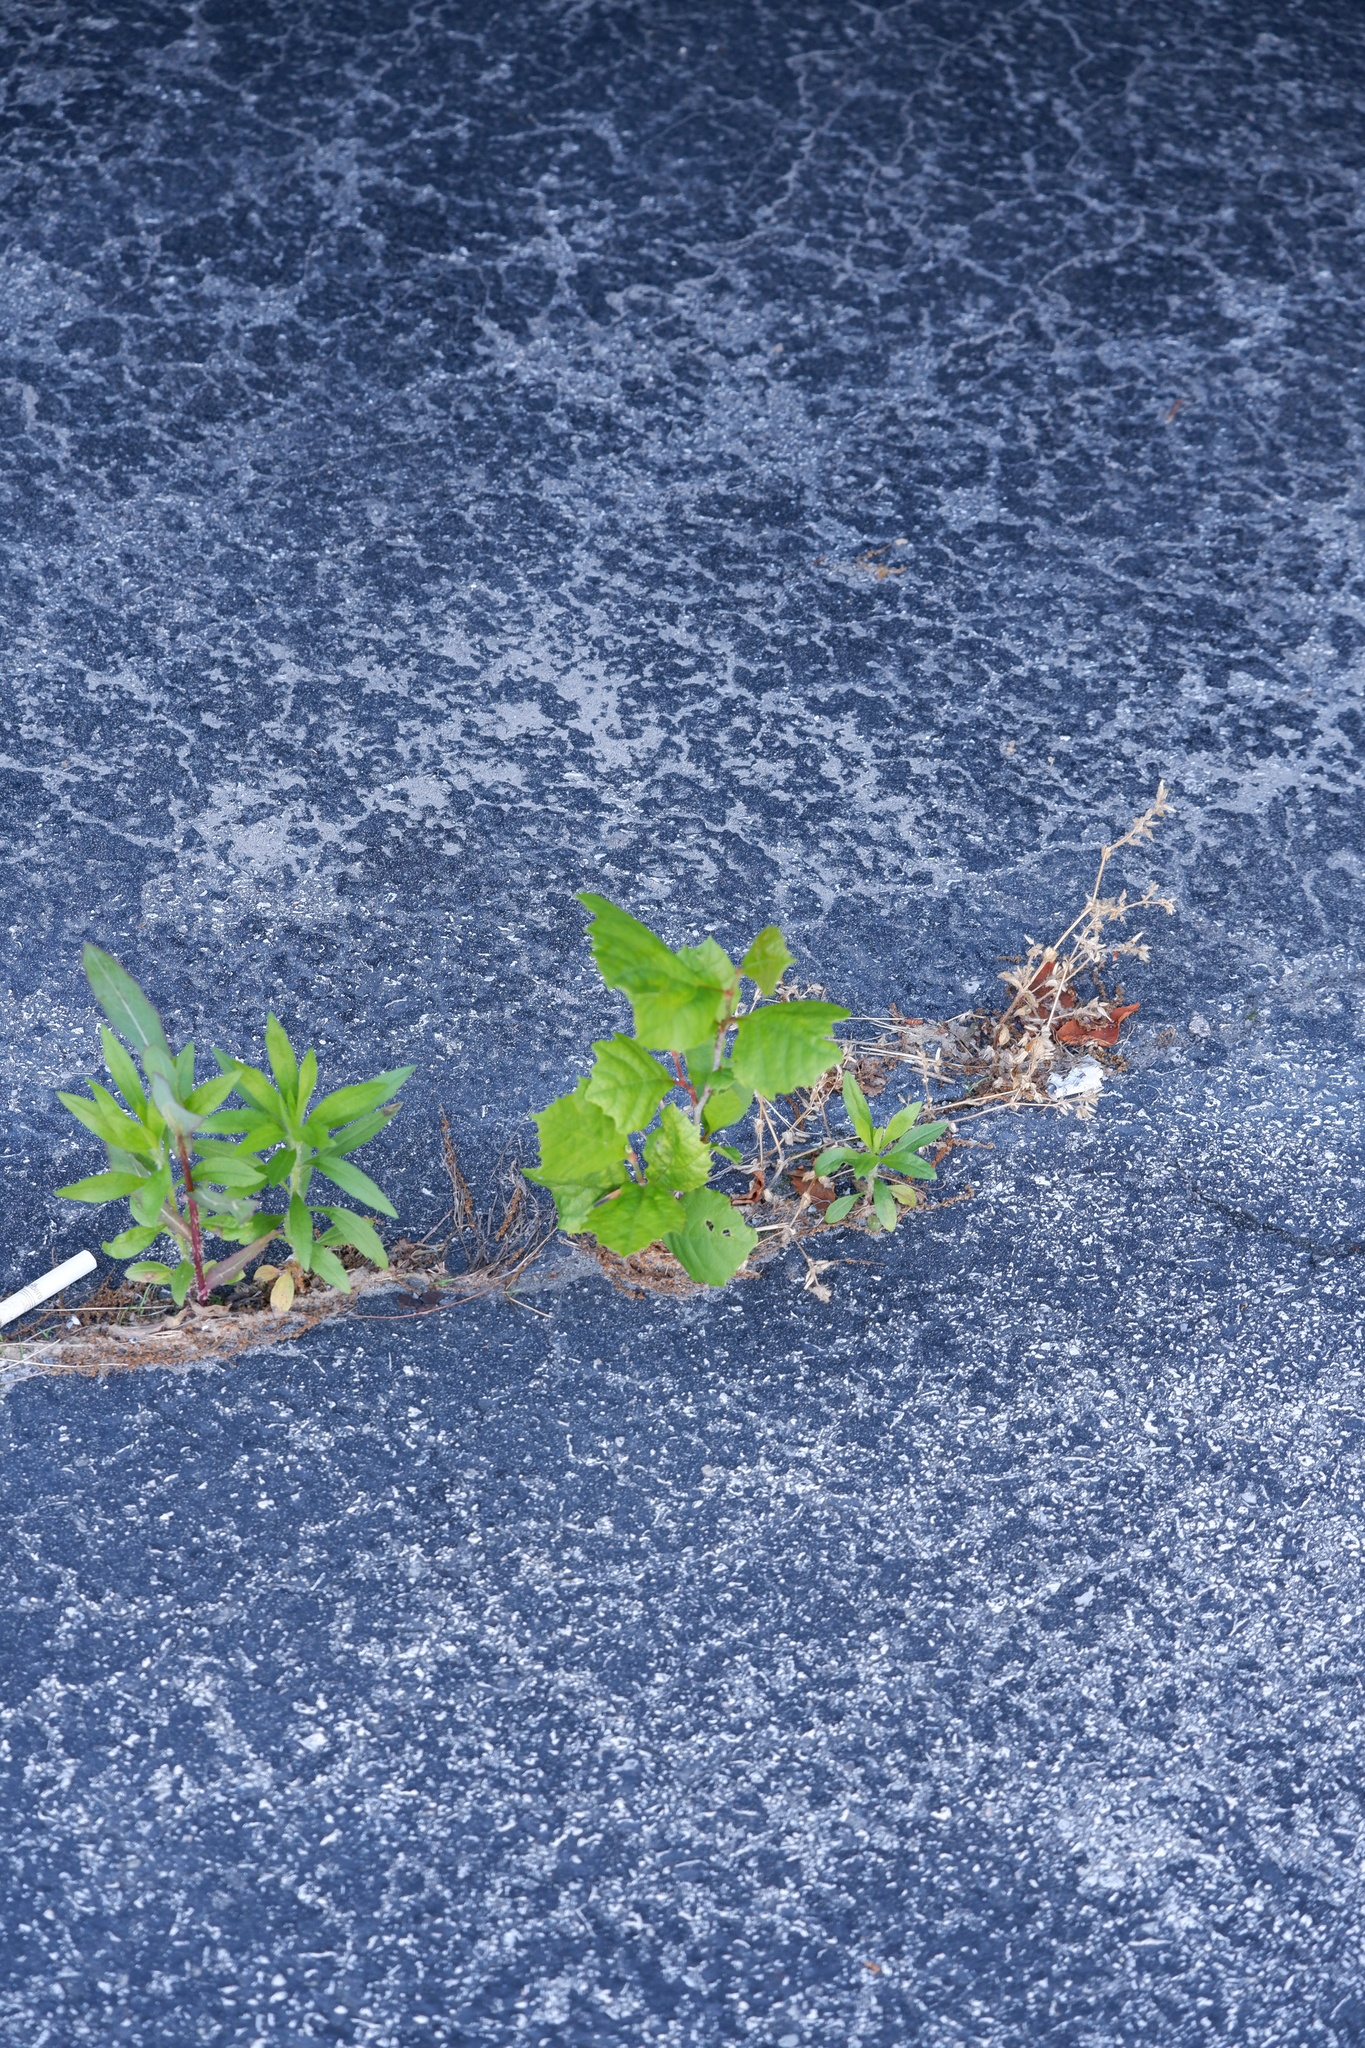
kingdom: Plantae
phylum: Tracheophyta
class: Magnoliopsida
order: Proteales
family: Platanaceae
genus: Platanus
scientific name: Platanus occidentalis
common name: American sycamore
